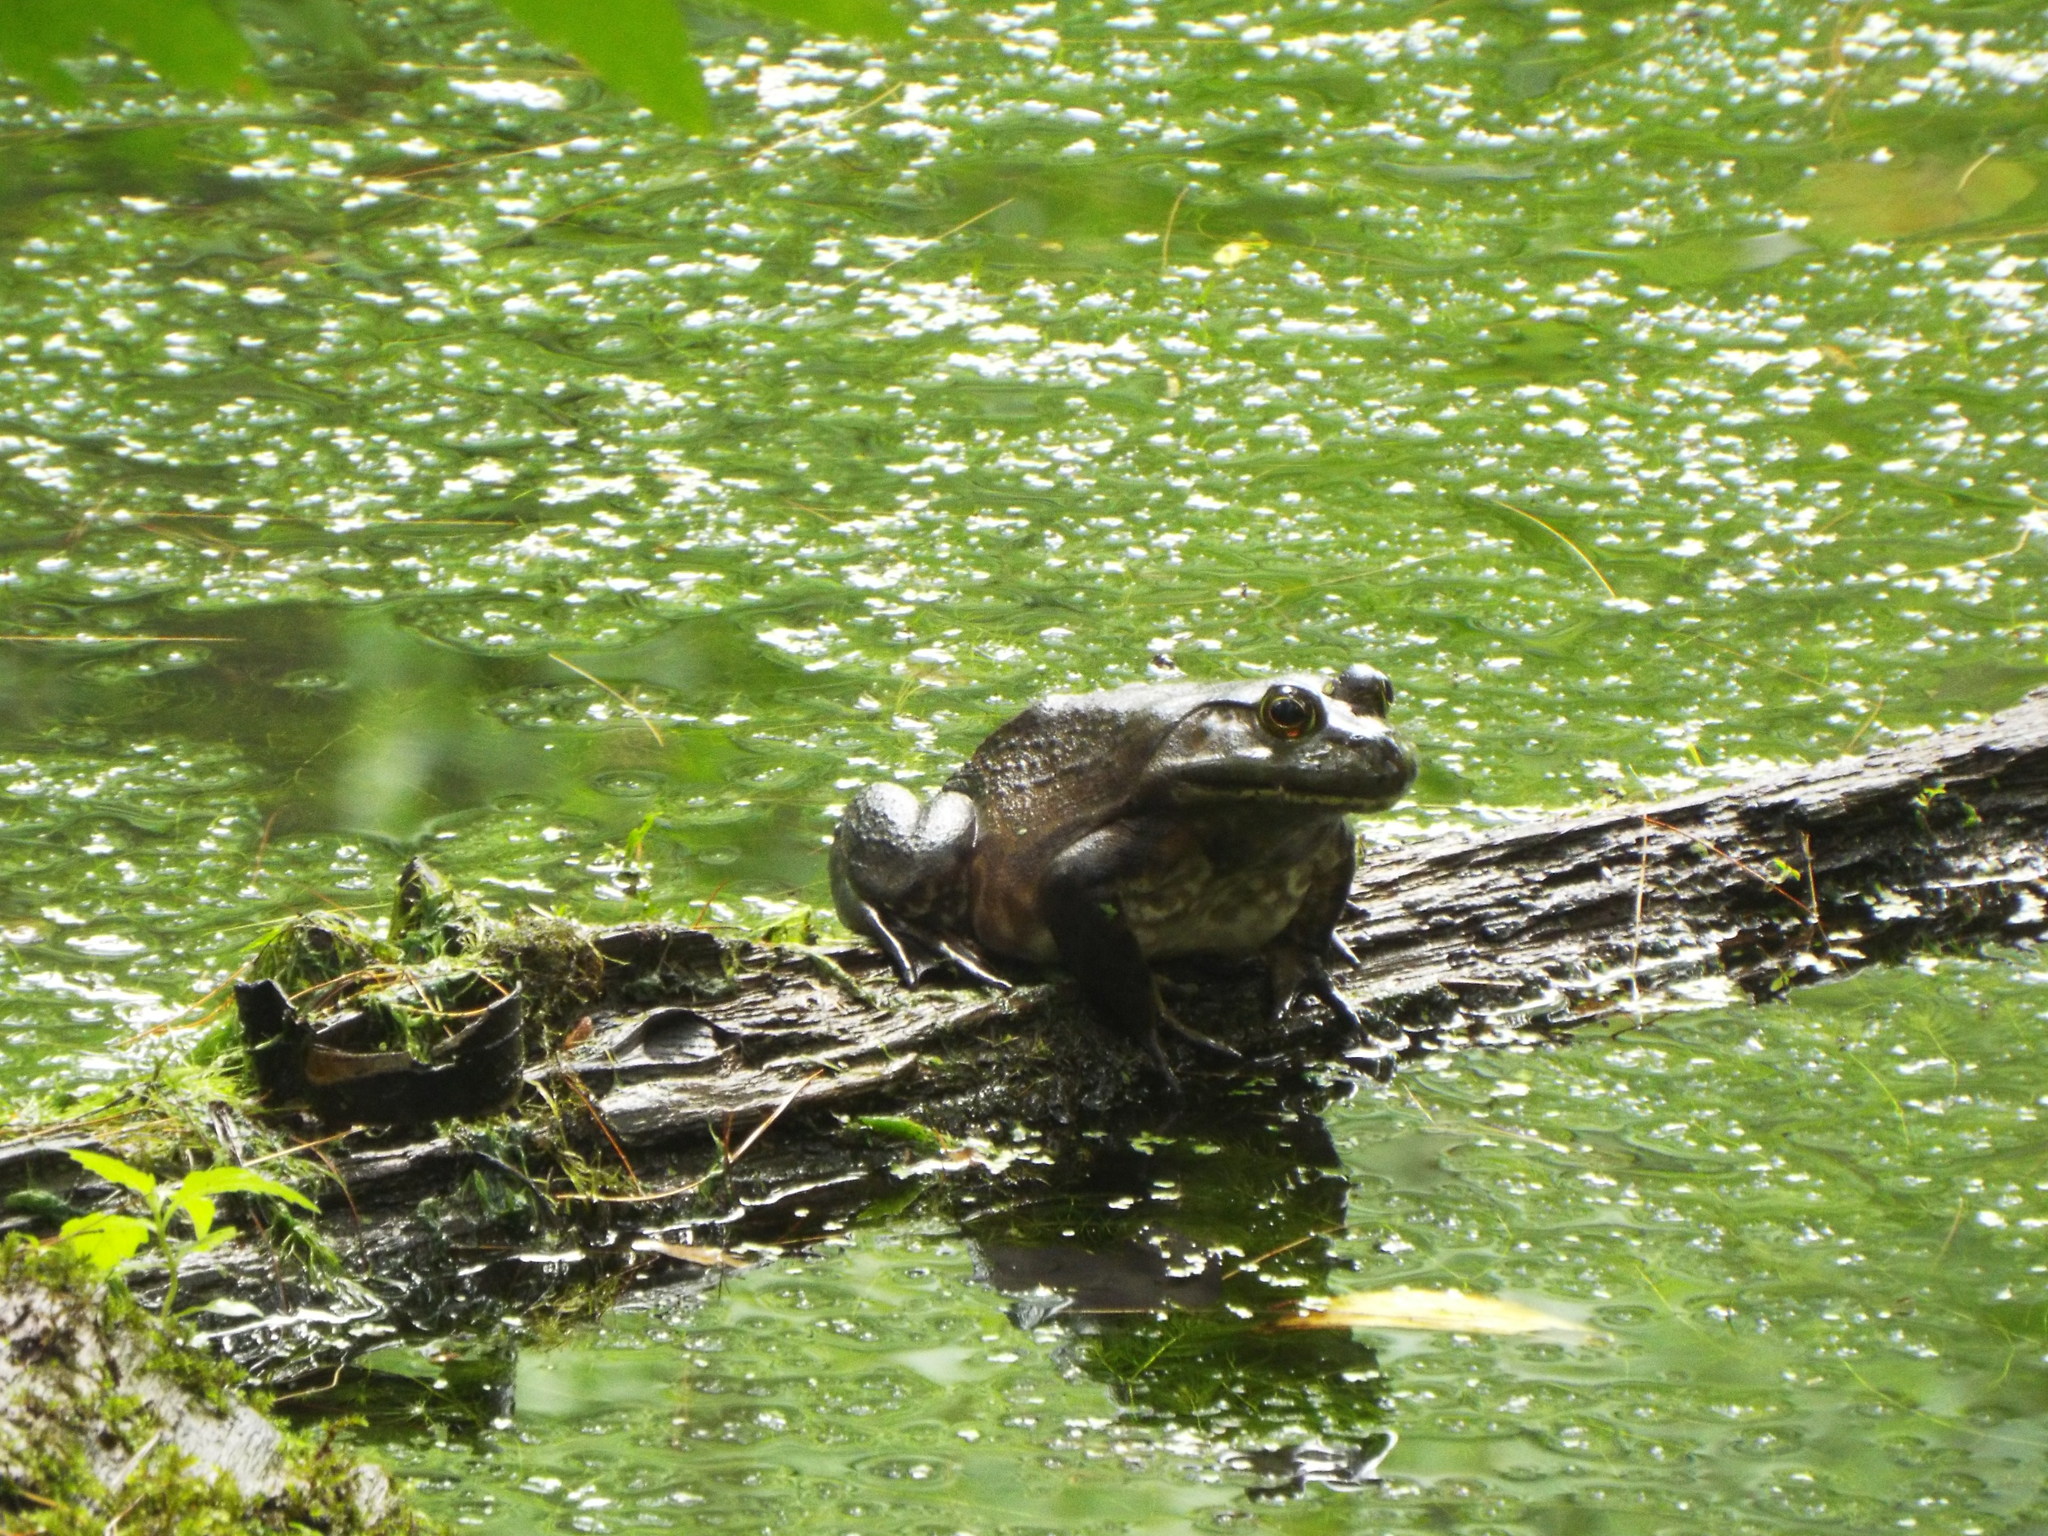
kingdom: Animalia
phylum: Chordata
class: Amphibia
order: Anura
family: Ranidae
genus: Lithobates
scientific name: Lithobates catesbeianus
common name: American bullfrog
